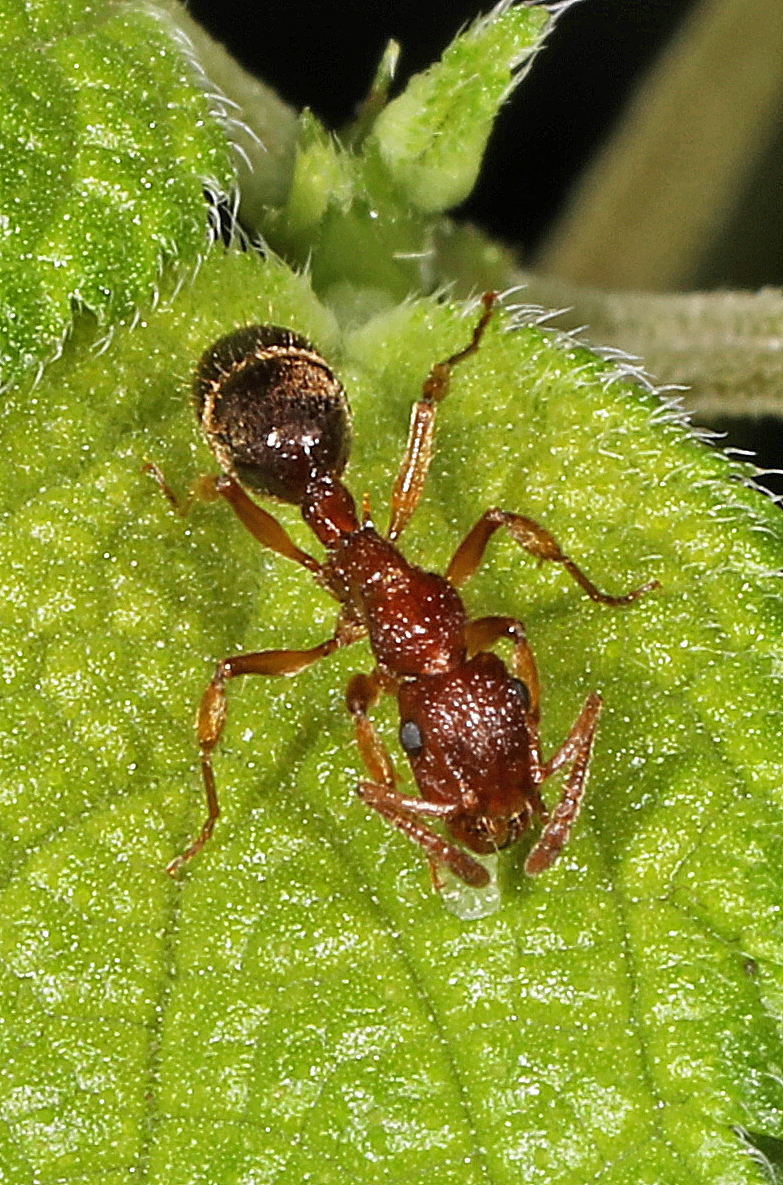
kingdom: Animalia
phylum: Arthropoda
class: Insecta
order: Hymenoptera
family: Formicidae
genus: Acanthoponera
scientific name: Acanthoponera minor
